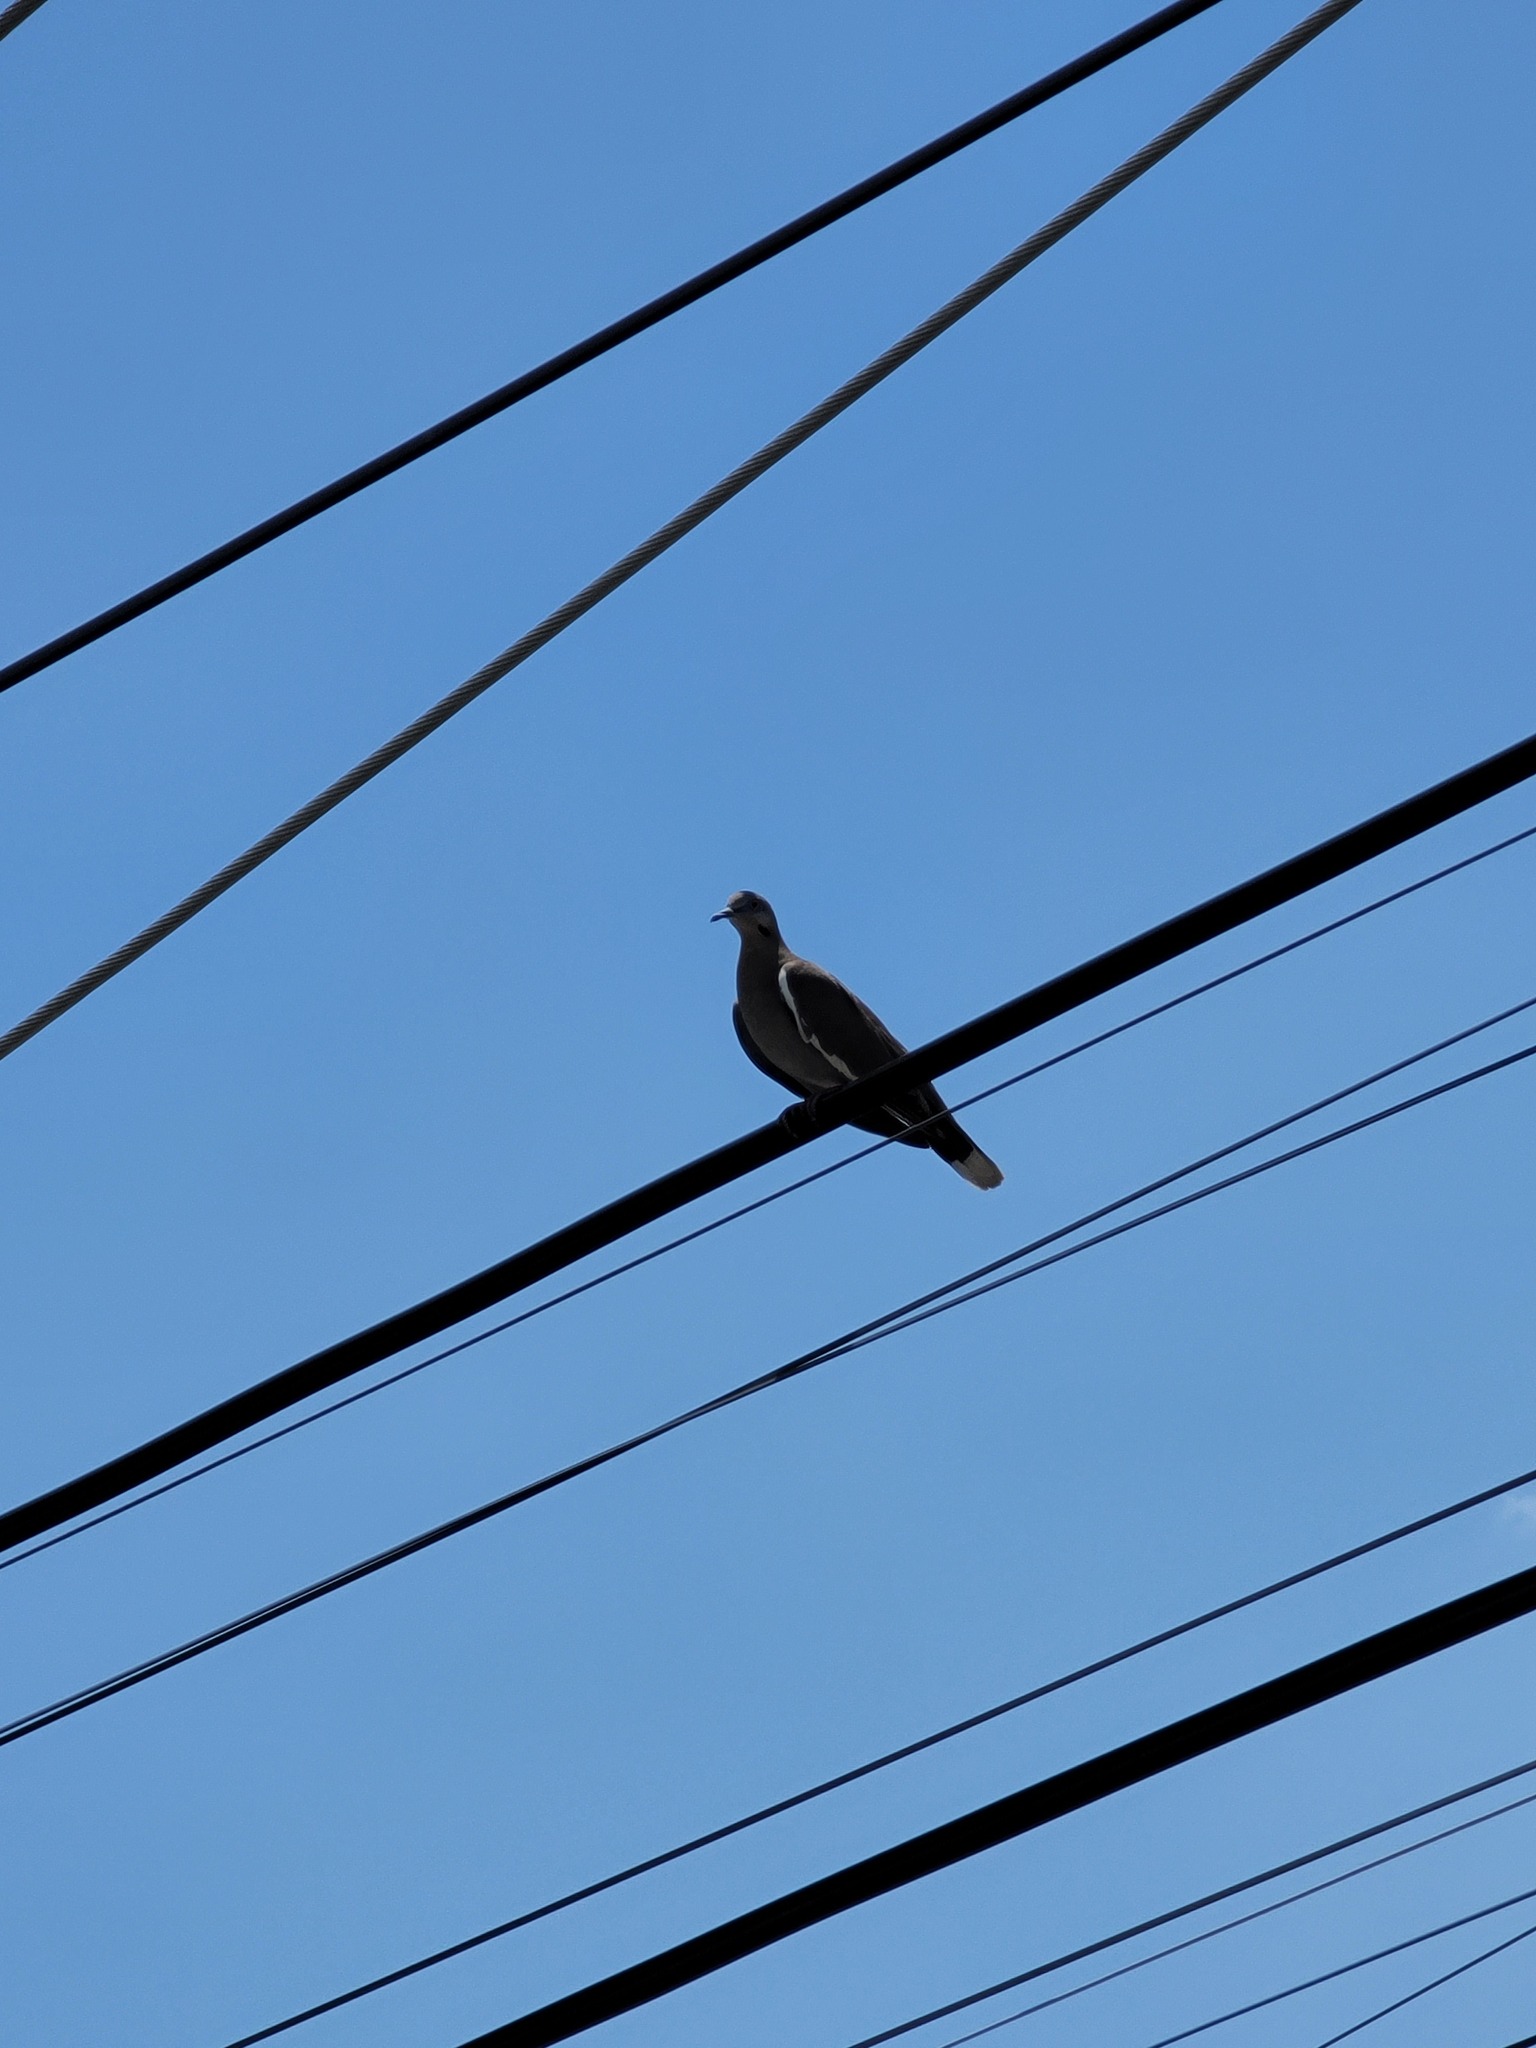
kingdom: Animalia
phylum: Chordata
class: Aves
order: Columbiformes
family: Columbidae
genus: Zenaida
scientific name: Zenaida asiatica
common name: White-winged dove
